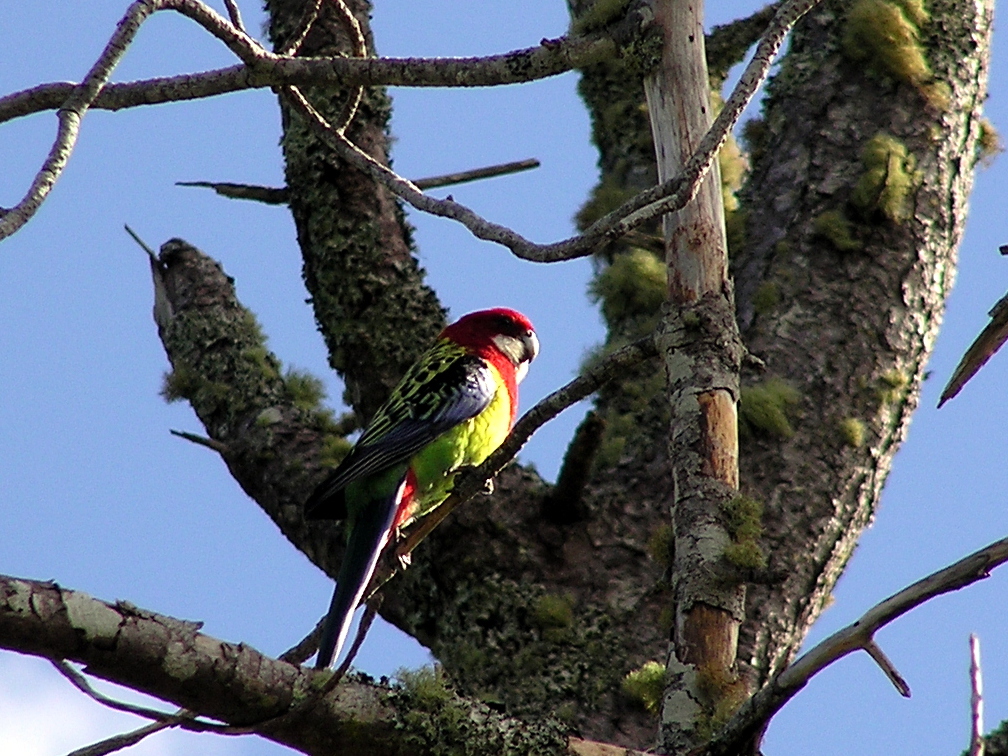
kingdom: Animalia
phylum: Chordata
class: Aves
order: Psittaciformes
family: Psittacidae
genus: Platycercus
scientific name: Platycercus eximius
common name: Eastern rosella
